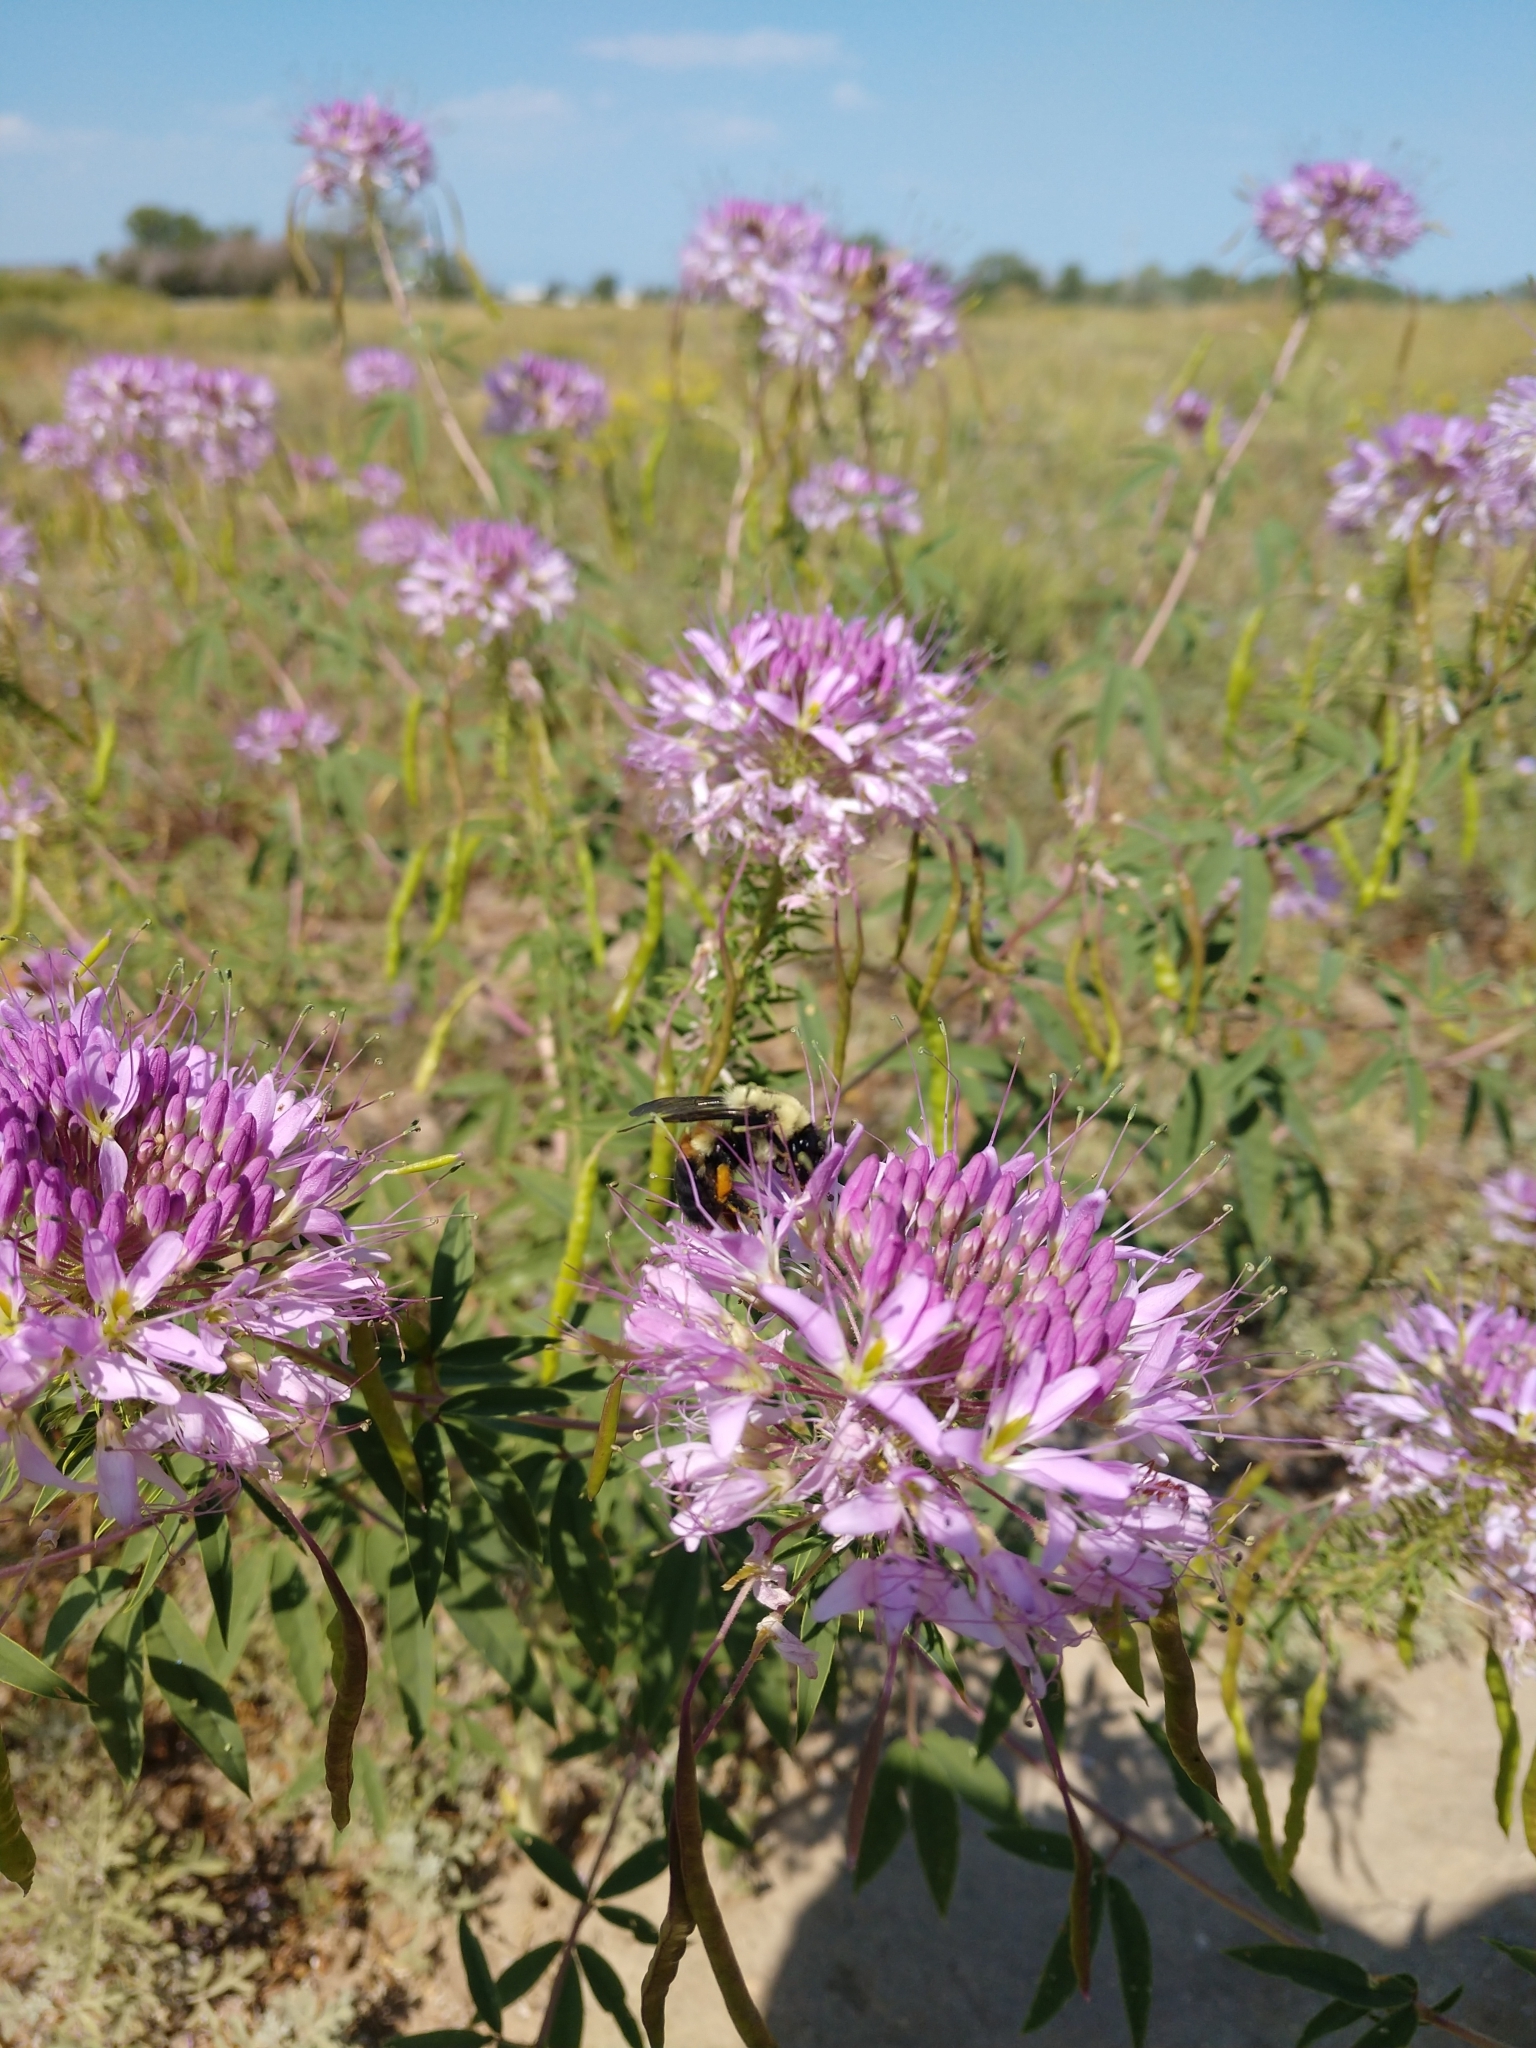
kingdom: Animalia
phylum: Arthropoda
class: Insecta
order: Hymenoptera
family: Apidae
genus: Bombus
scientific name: Bombus griseocollis
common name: Brown-belted bumble bee
